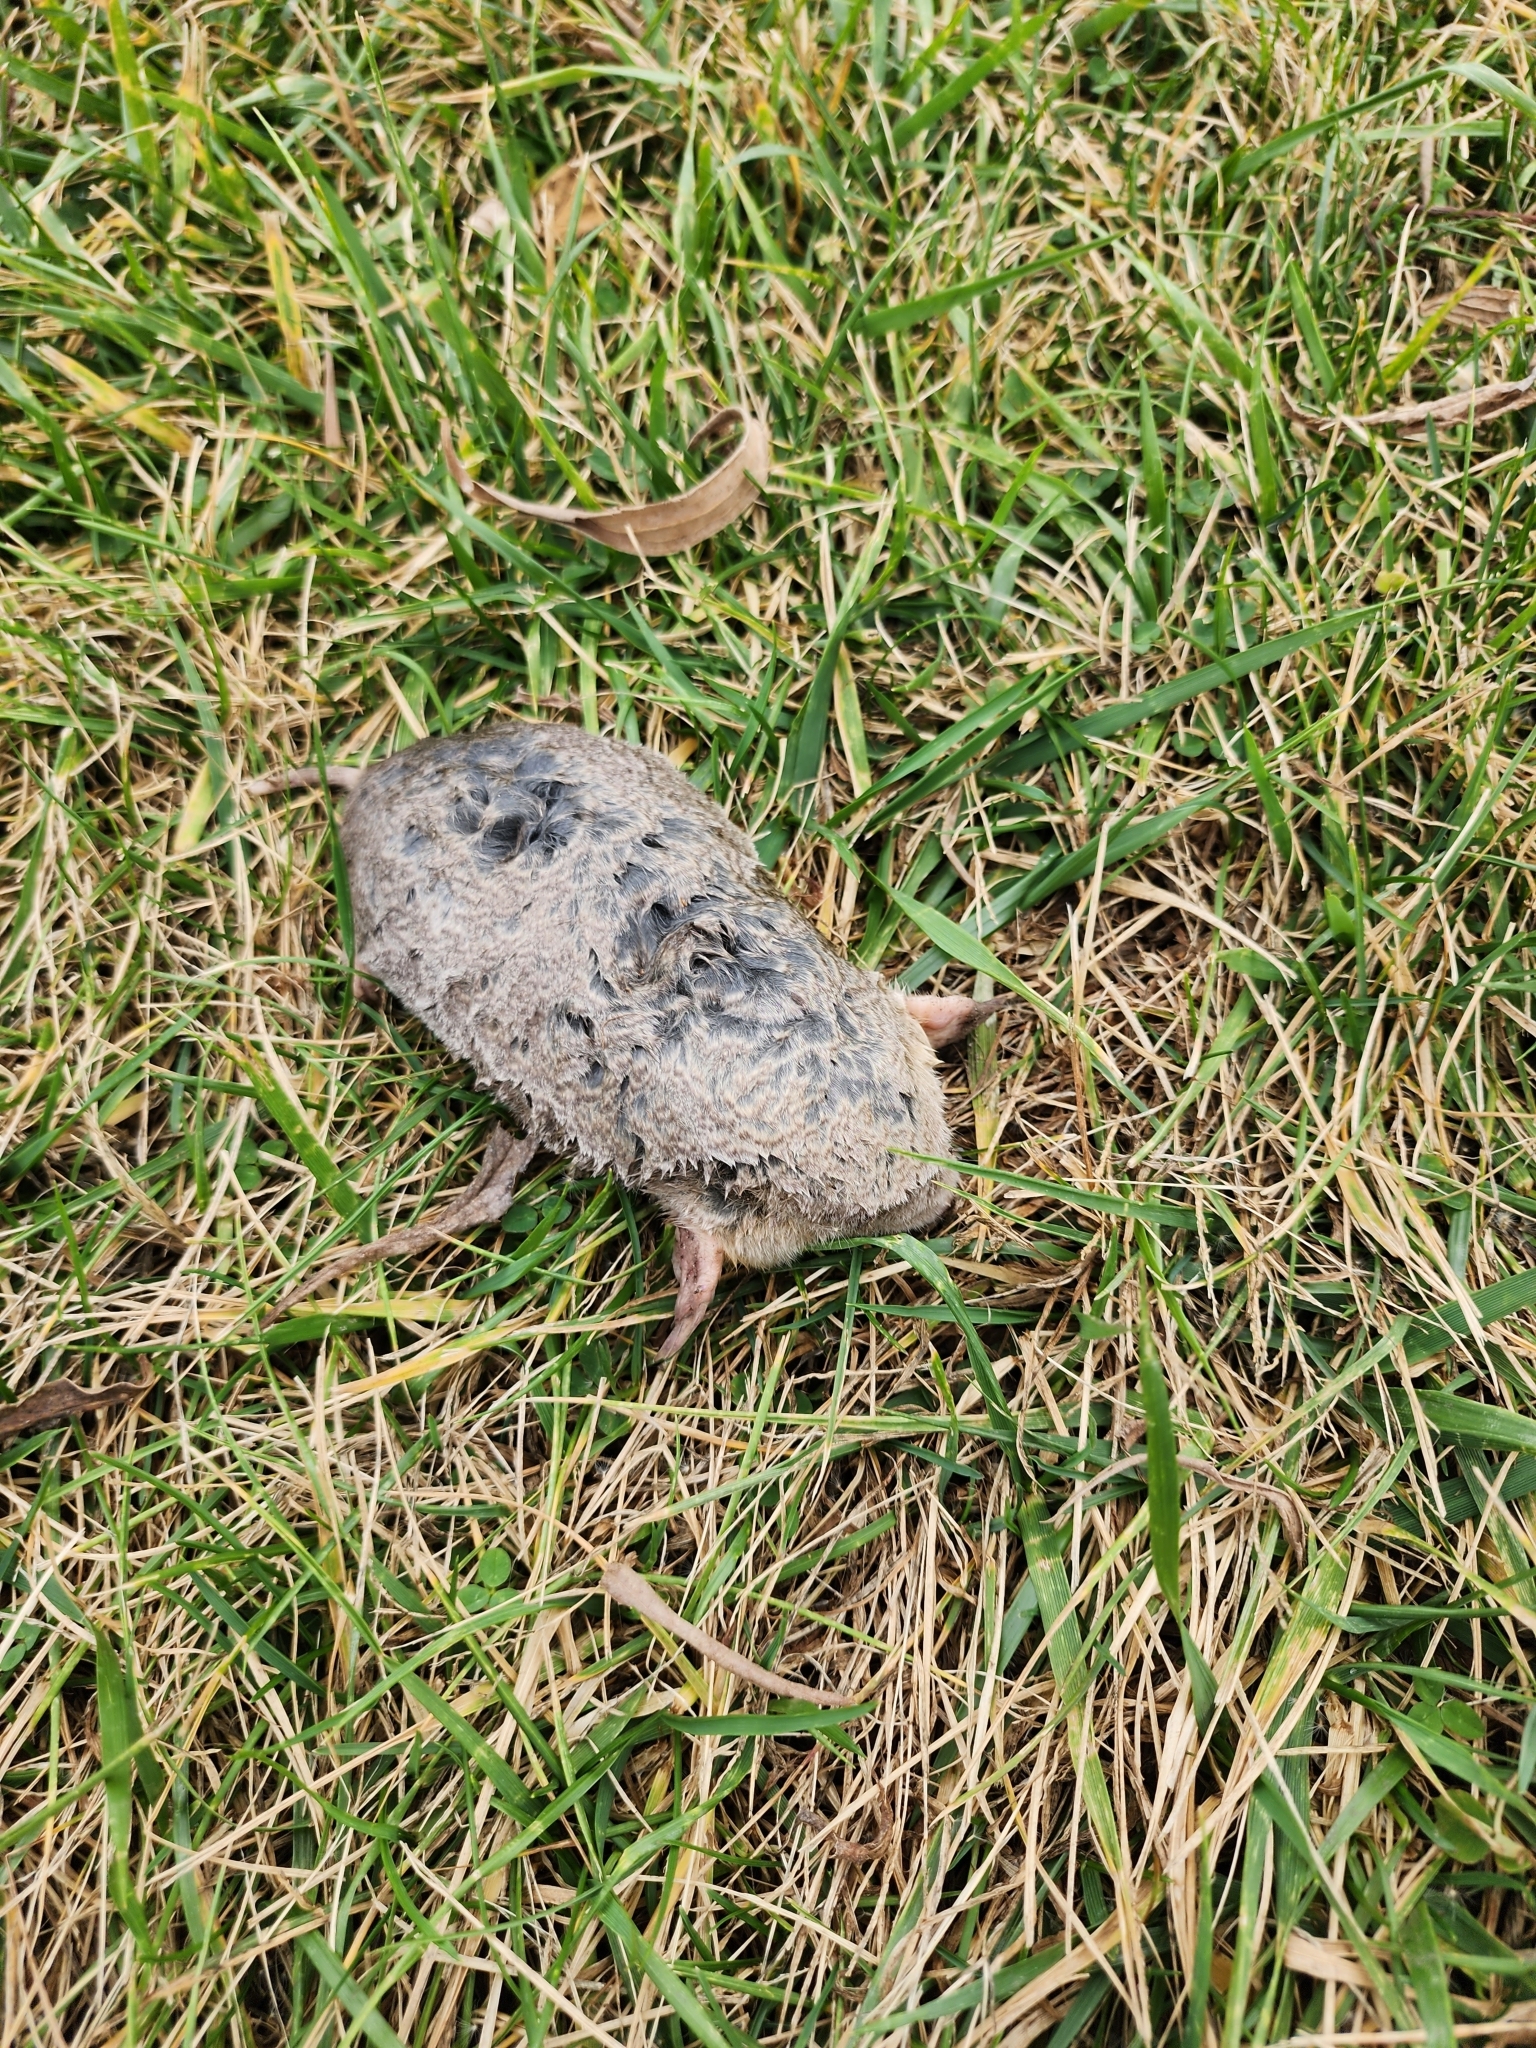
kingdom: Animalia
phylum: Chordata
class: Mammalia
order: Soricomorpha
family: Talpidae
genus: Scalopus
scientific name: Scalopus aquaticus
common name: Eastern mole
